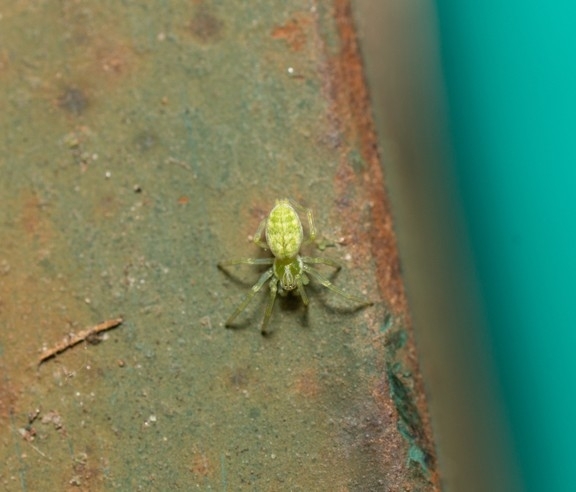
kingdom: Animalia
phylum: Arthropoda
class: Arachnida
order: Araneae
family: Dictynidae
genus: Nigma
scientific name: Nigma walckenaeri
